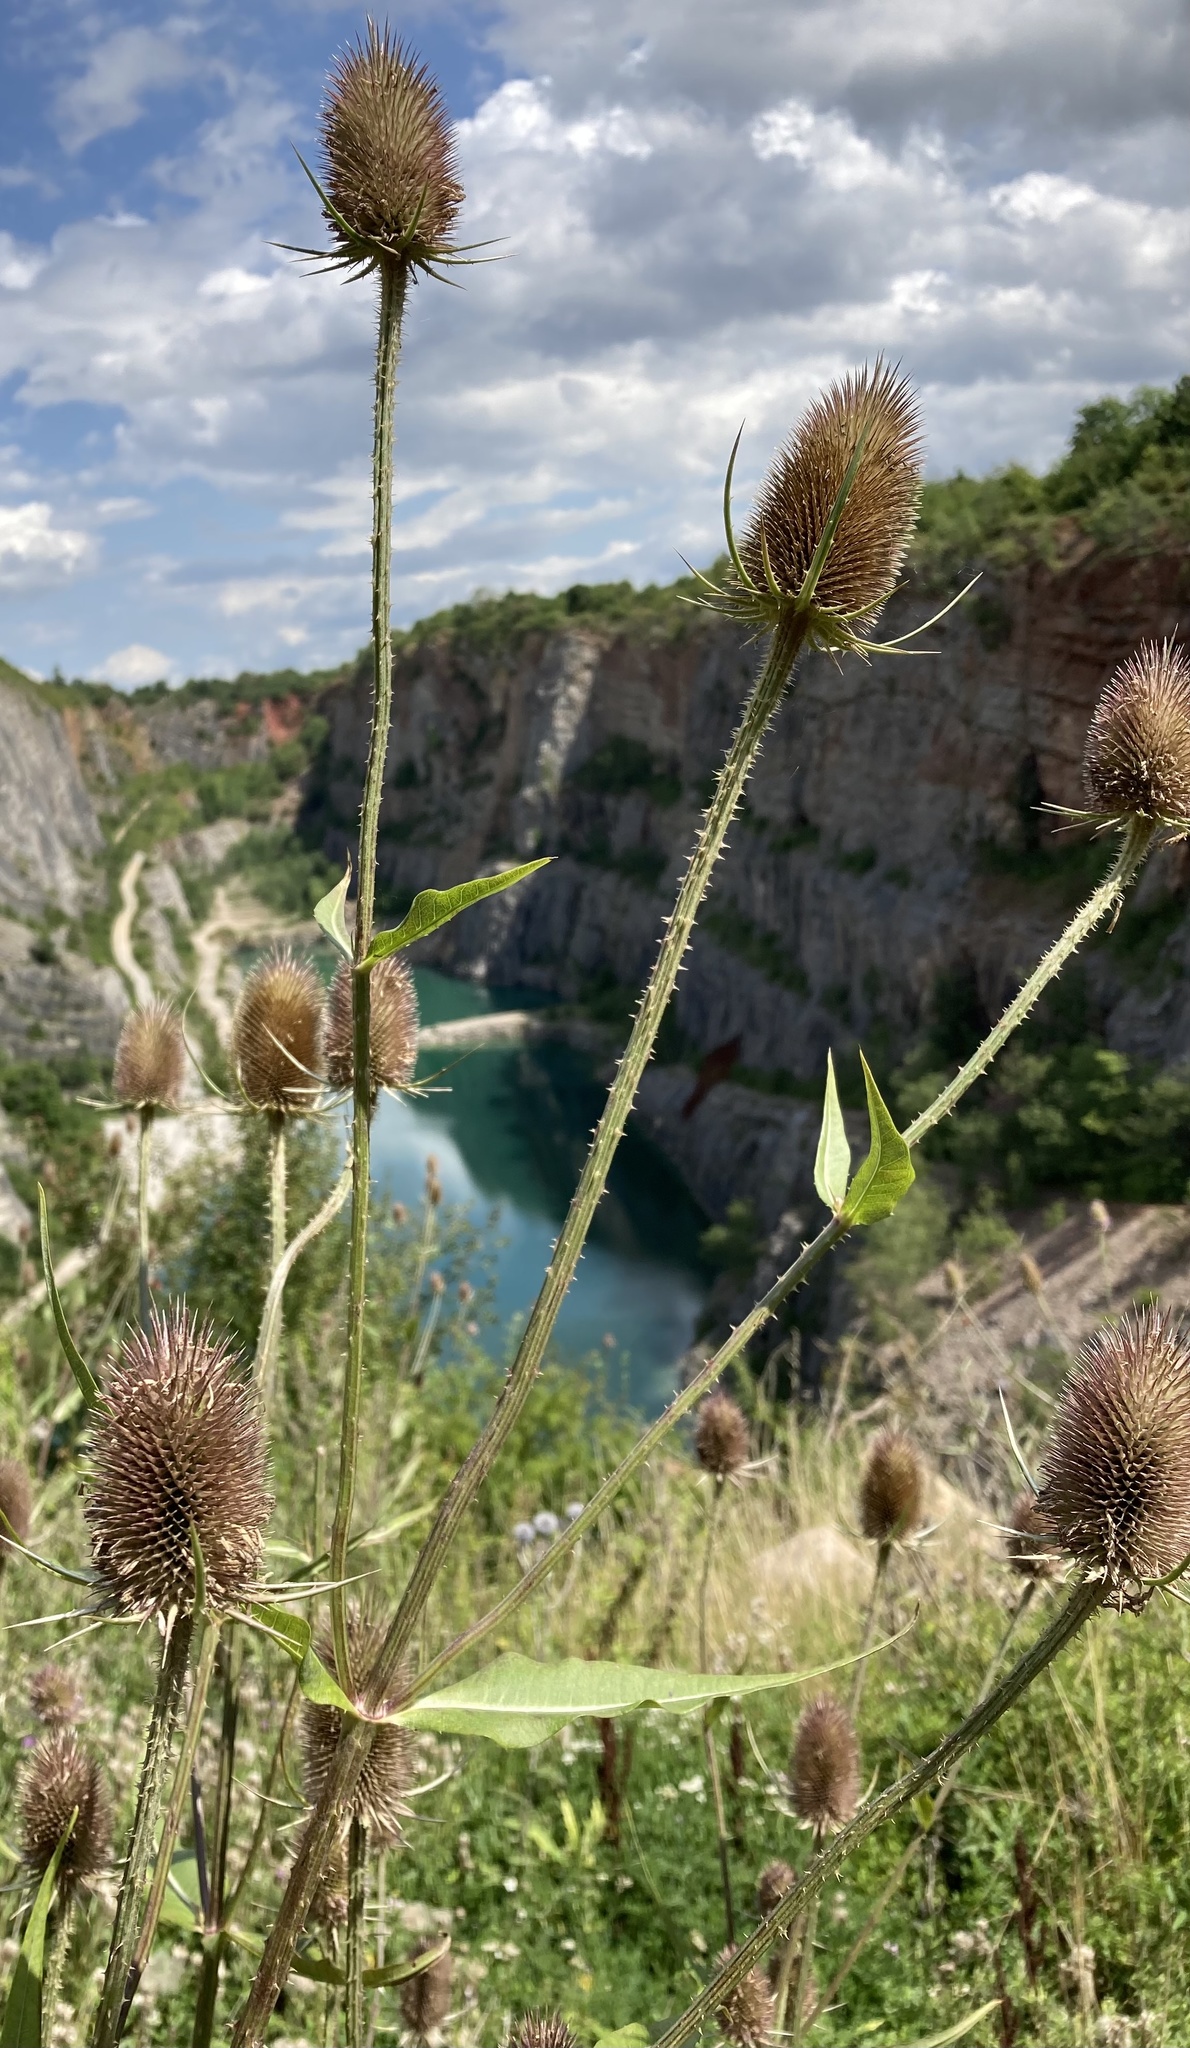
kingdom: Plantae
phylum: Tracheophyta
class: Magnoliopsida
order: Dipsacales
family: Caprifoliaceae
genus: Dipsacus
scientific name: Dipsacus fullonum
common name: Teasel
